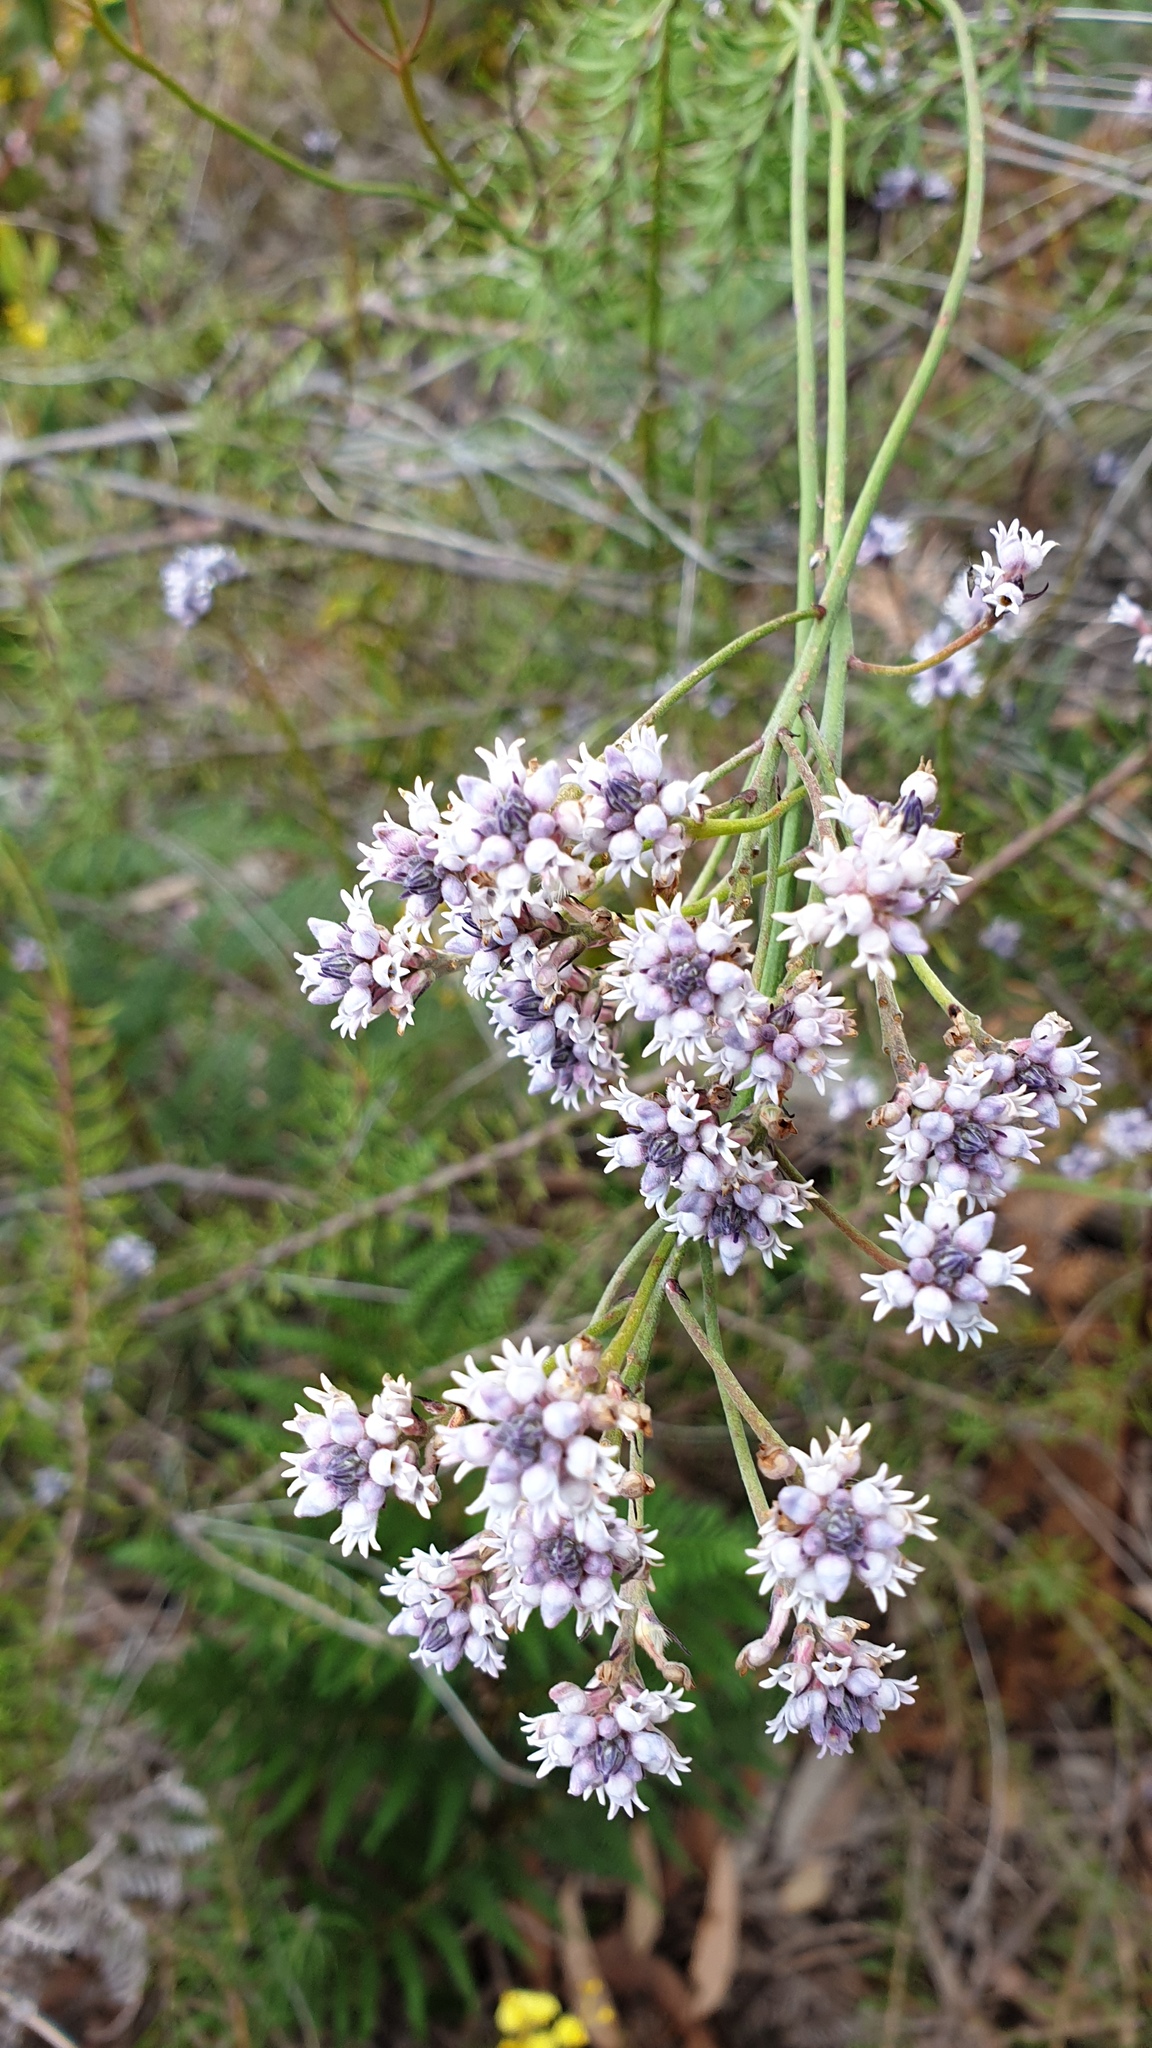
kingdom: Plantae
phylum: Tracheophyta
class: Magnoliopsida
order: Proteales
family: Proteaceae
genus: Conospermum
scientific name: Conospermum patens
